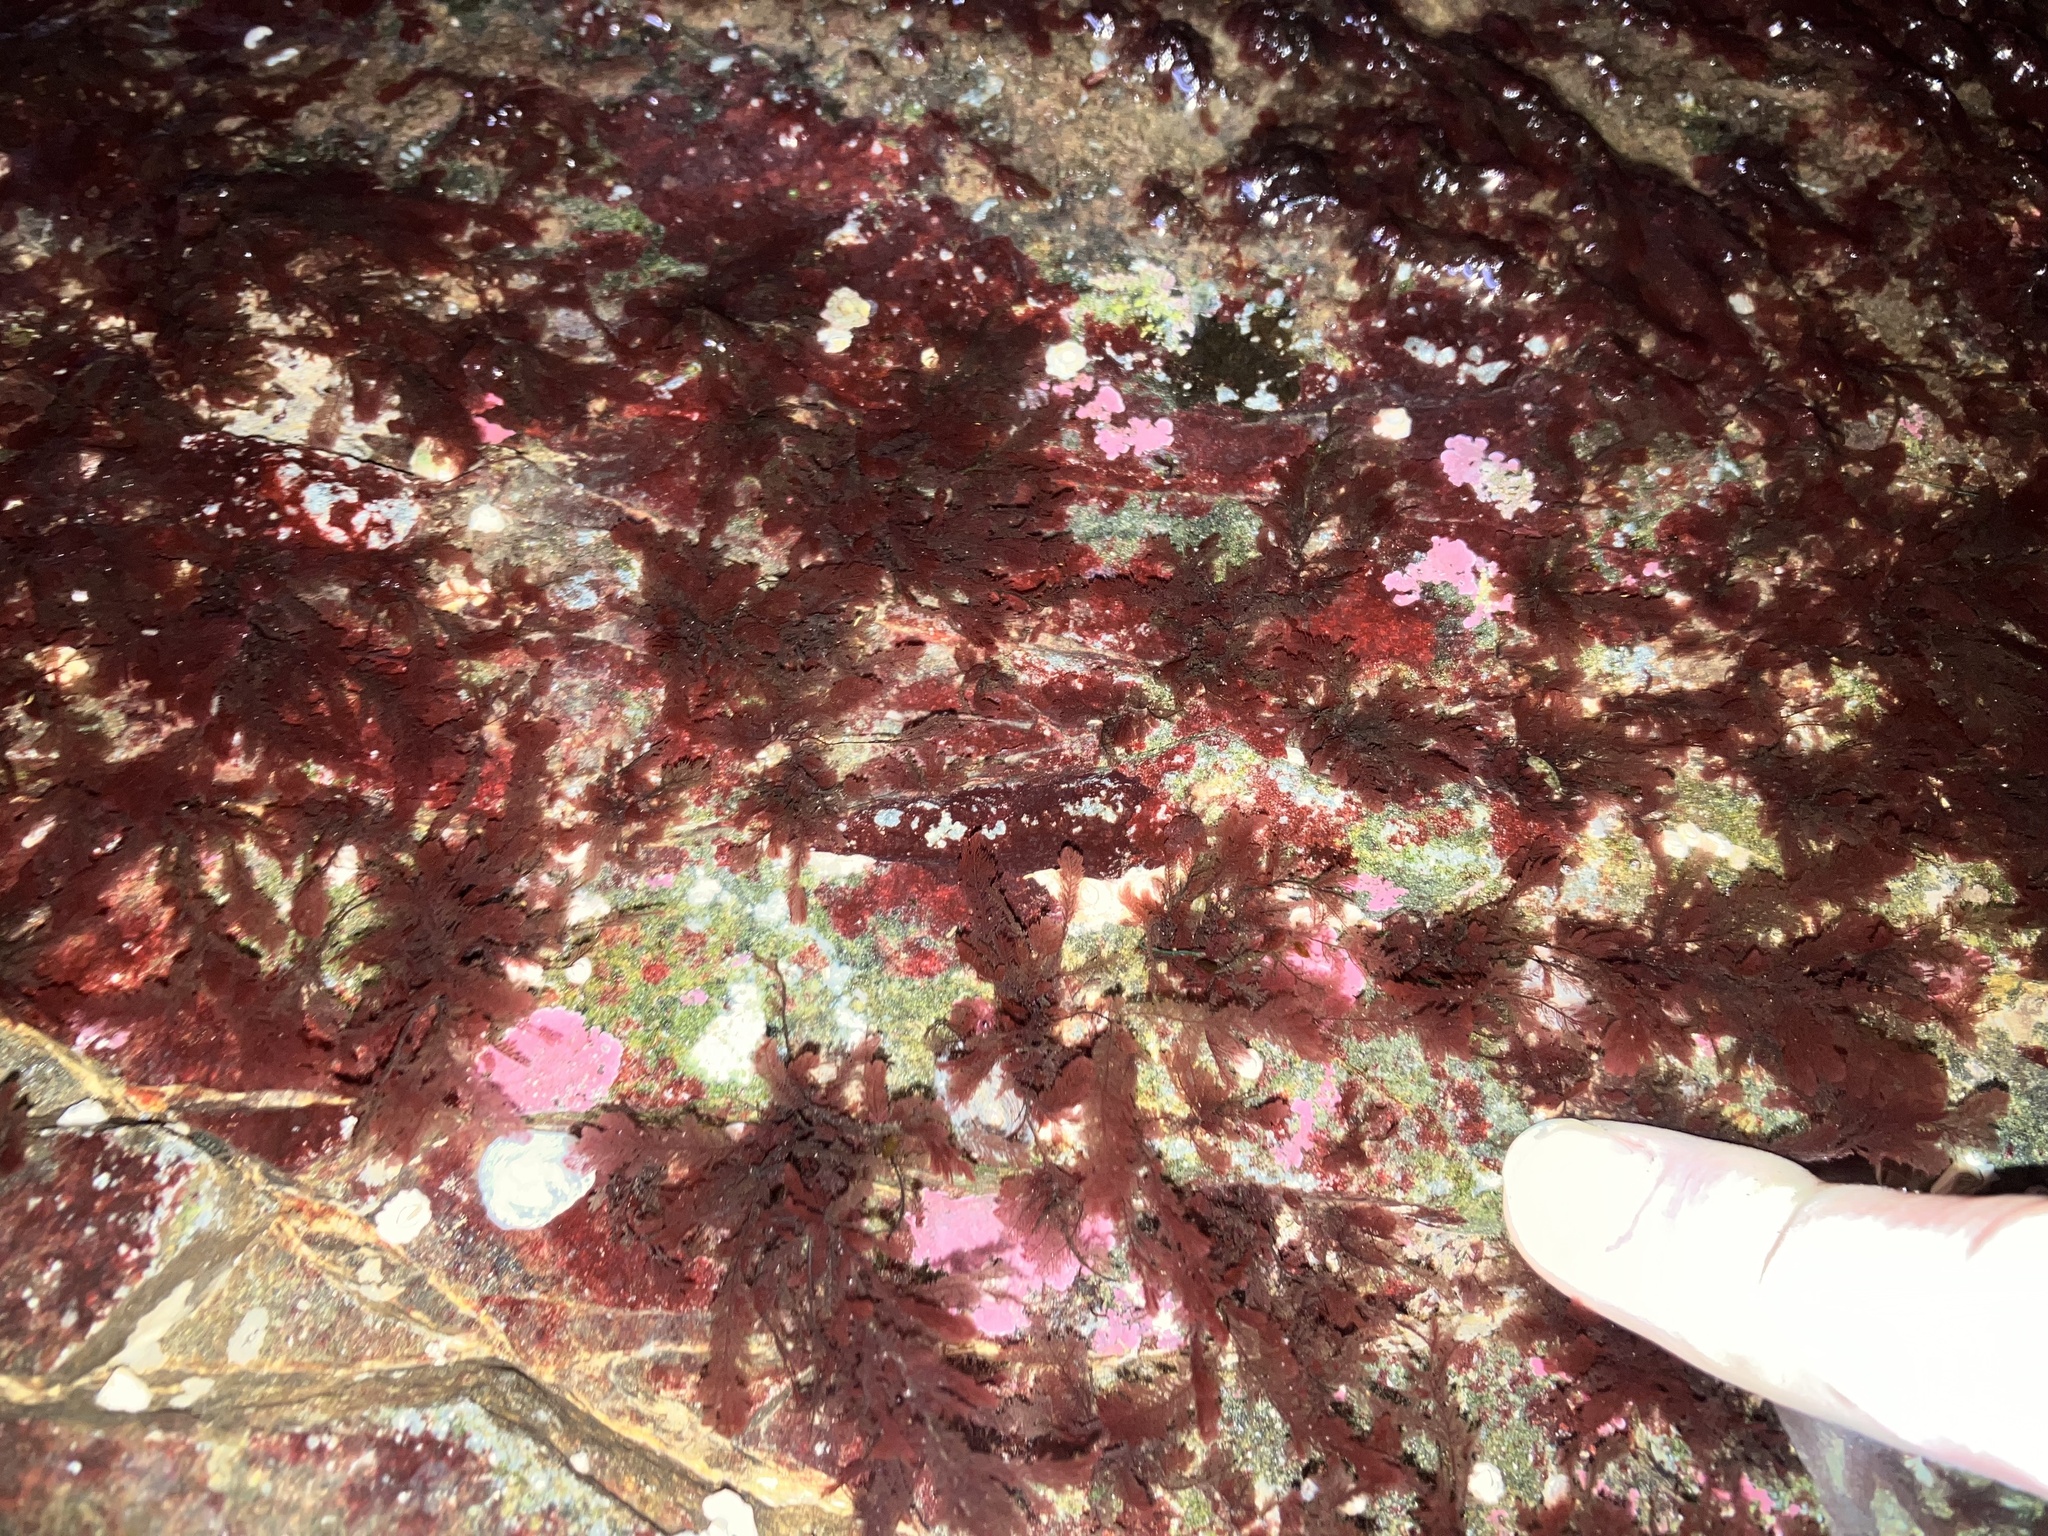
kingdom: Plantae
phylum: Rhodophyta
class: Florideophyceae
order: Ceramiales
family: Wrangeliaceae
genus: Plumaria
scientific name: Plumaria plumosa
